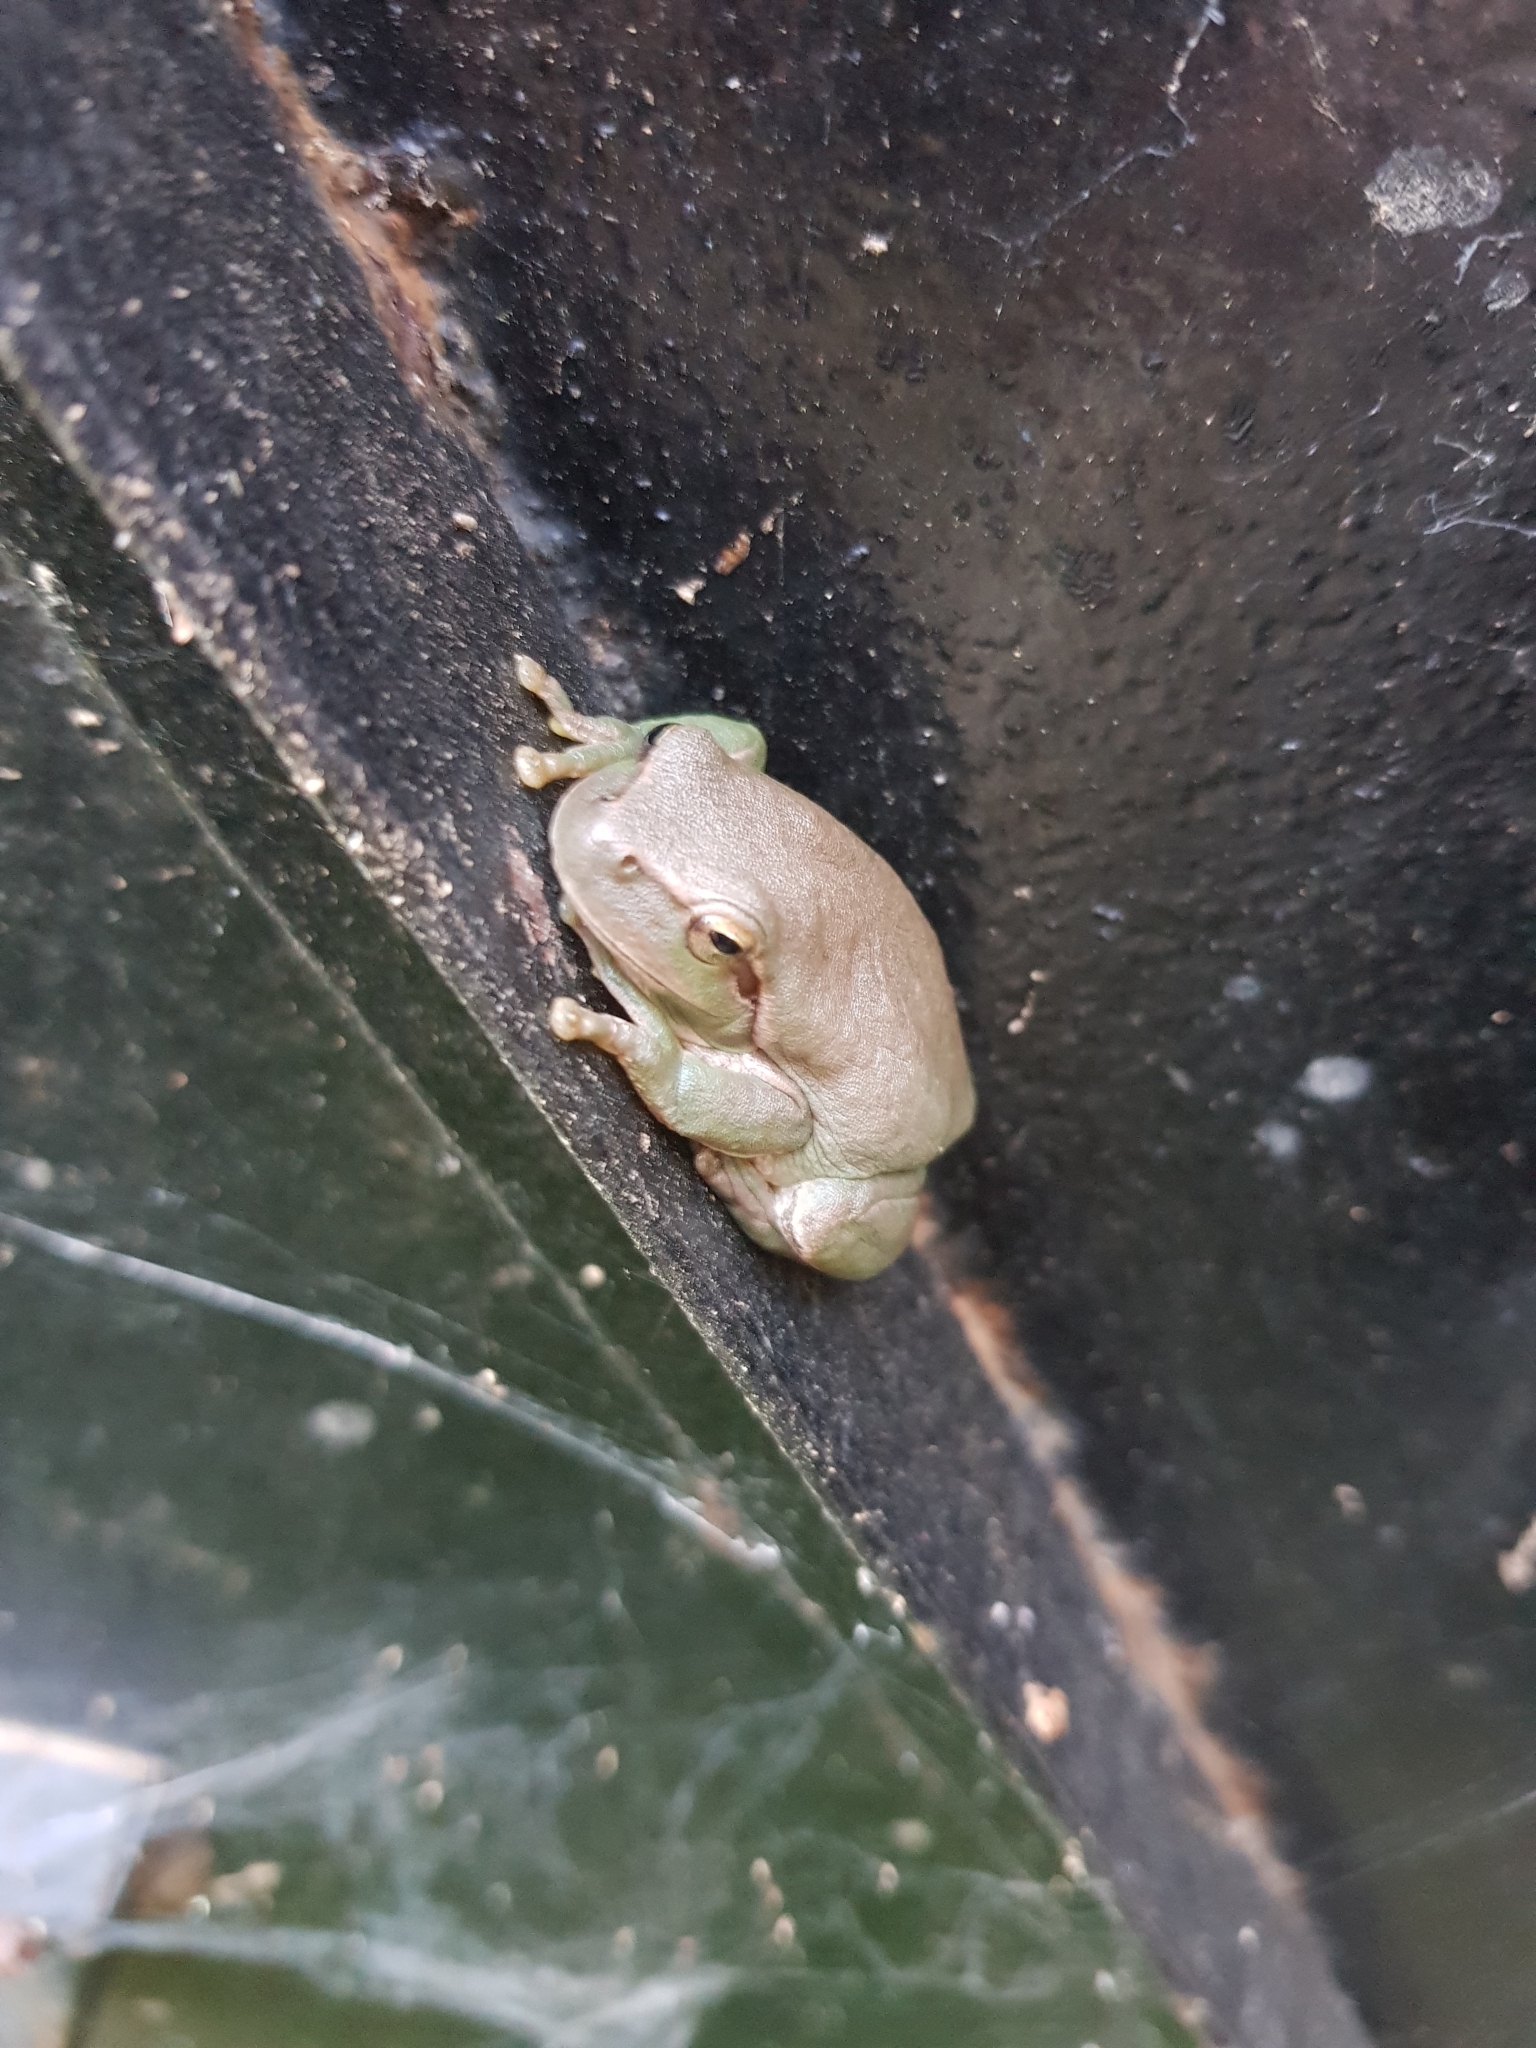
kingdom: Animalia
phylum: Chordata
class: Amphibia
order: Anura
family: Hylidae
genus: Hyla
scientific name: Hyla meridionalis
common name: Stripeless tree frog
